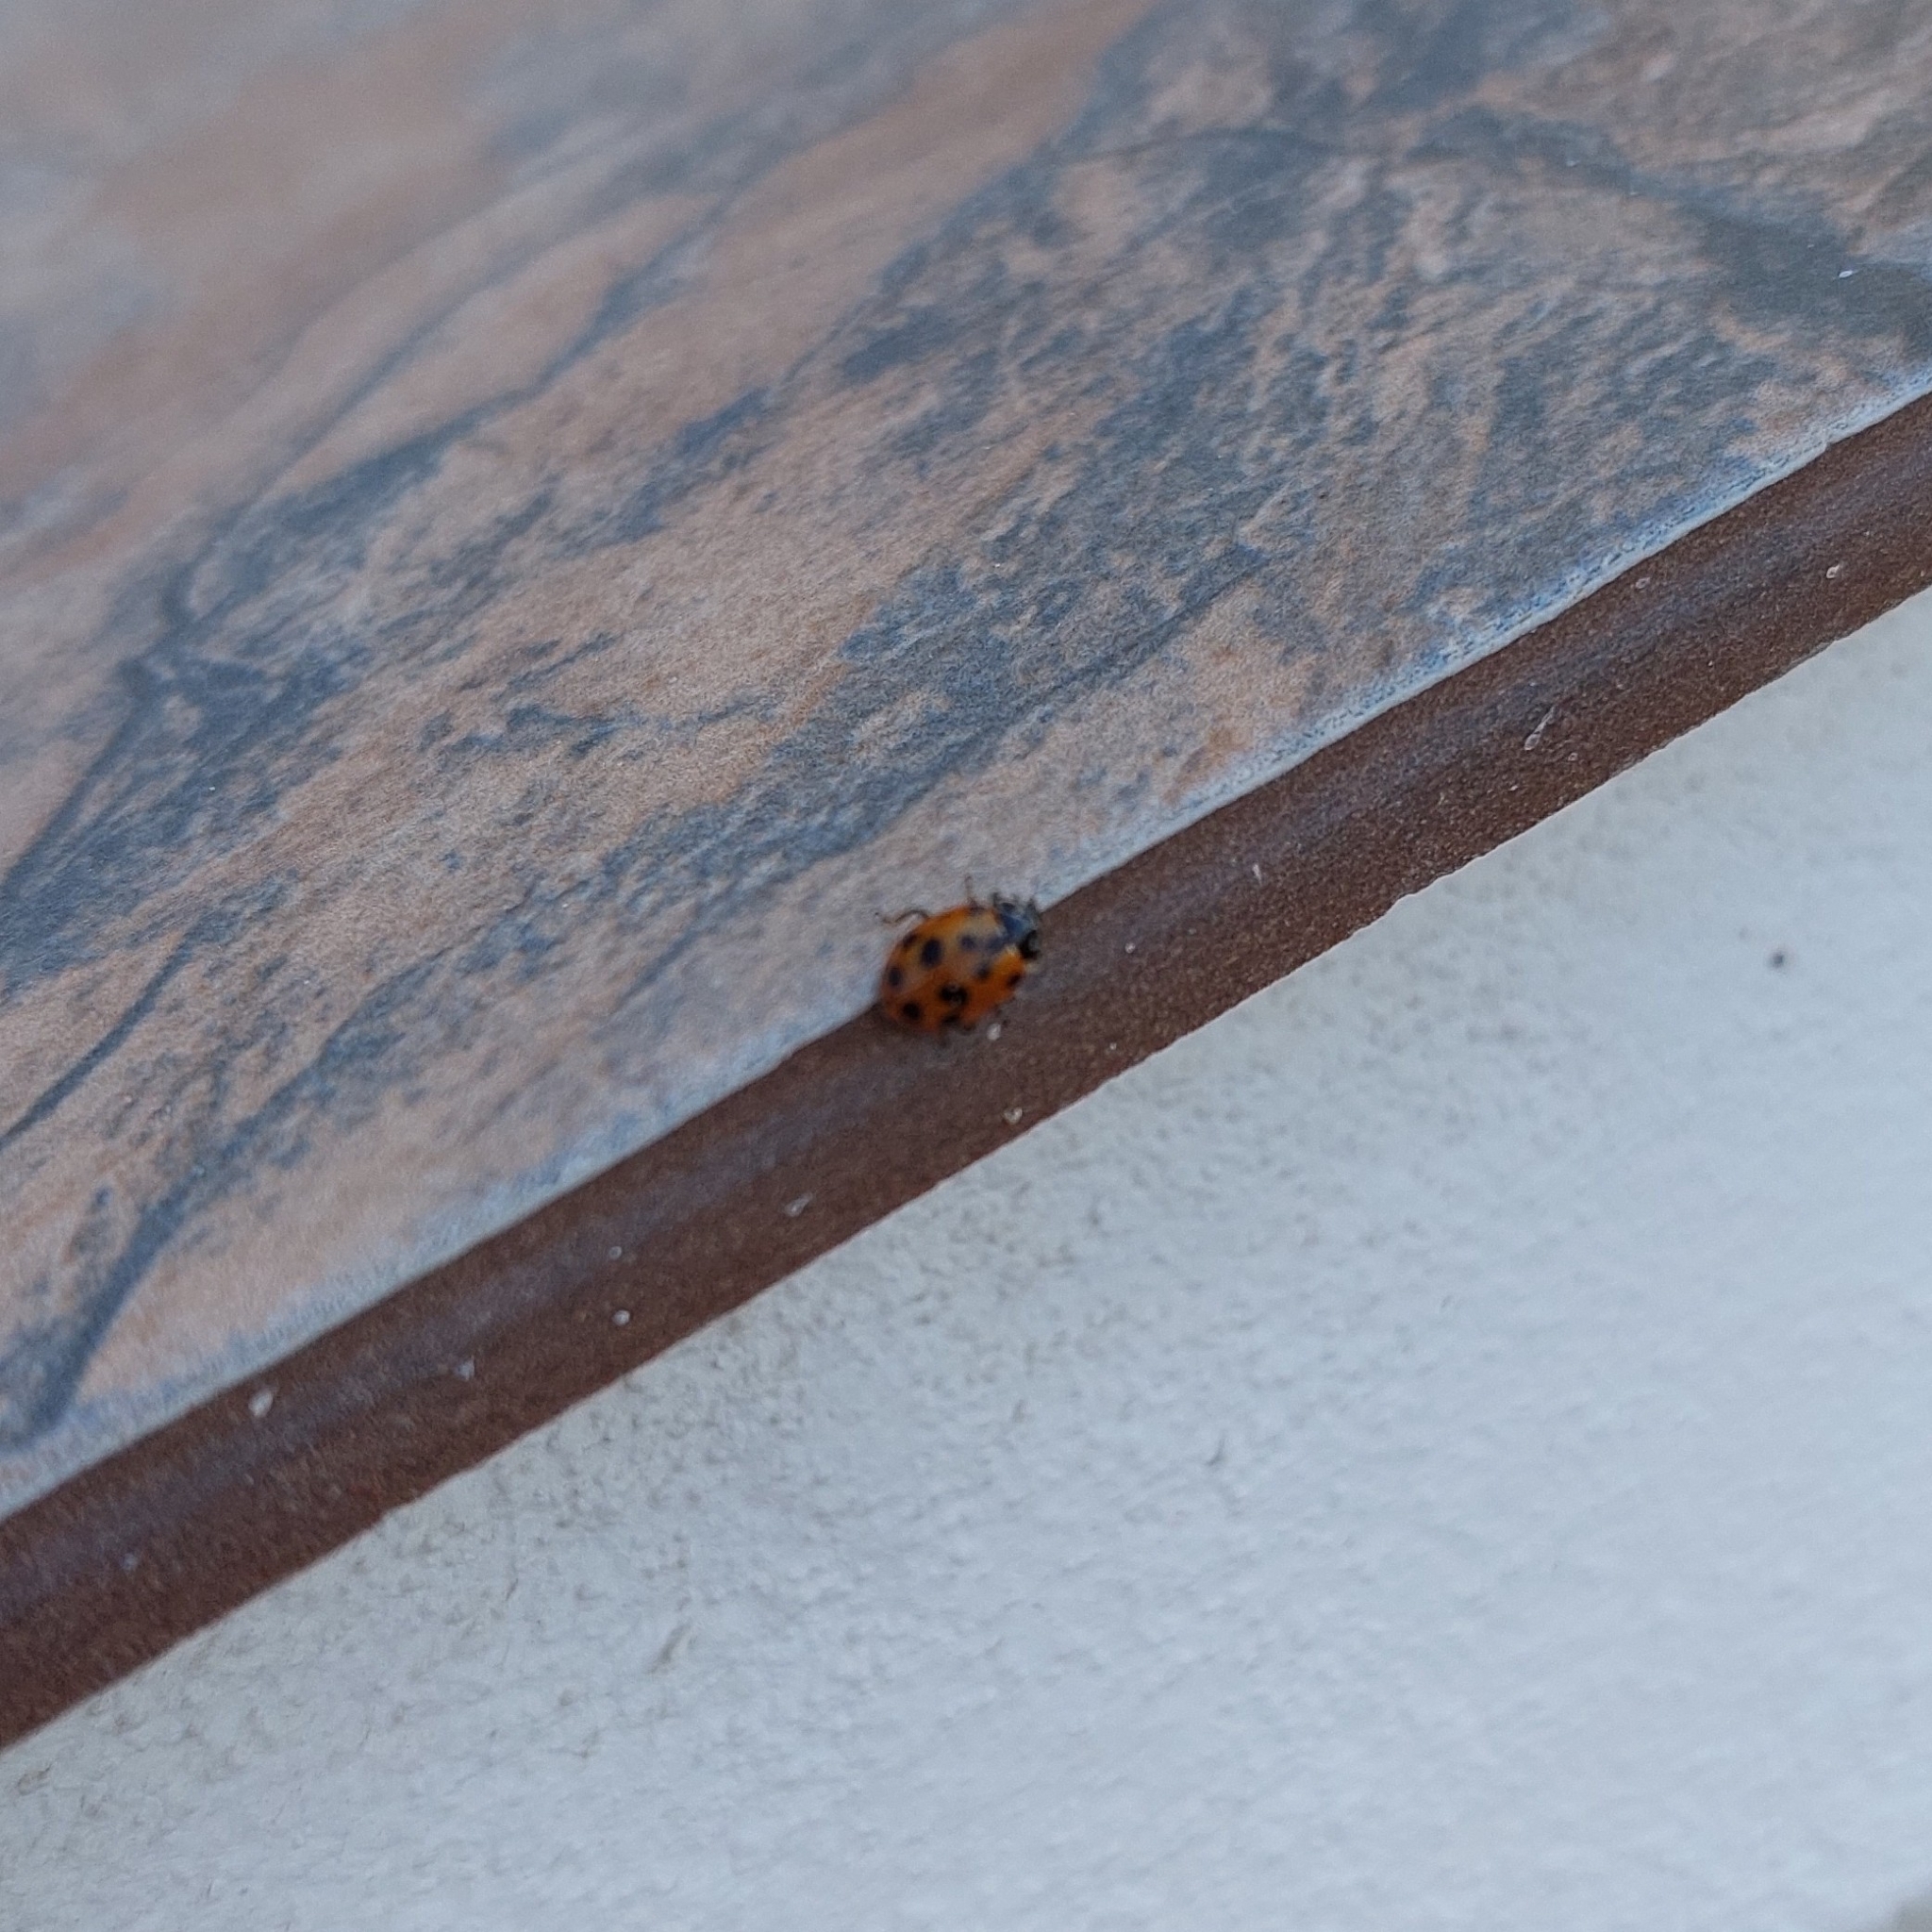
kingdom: Animalia
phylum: Arthropoda
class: Insecta
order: Coleoptera
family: Coccinellidae
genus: Hippodamia
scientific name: Hippodamia variegata
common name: Ladybird beetle
